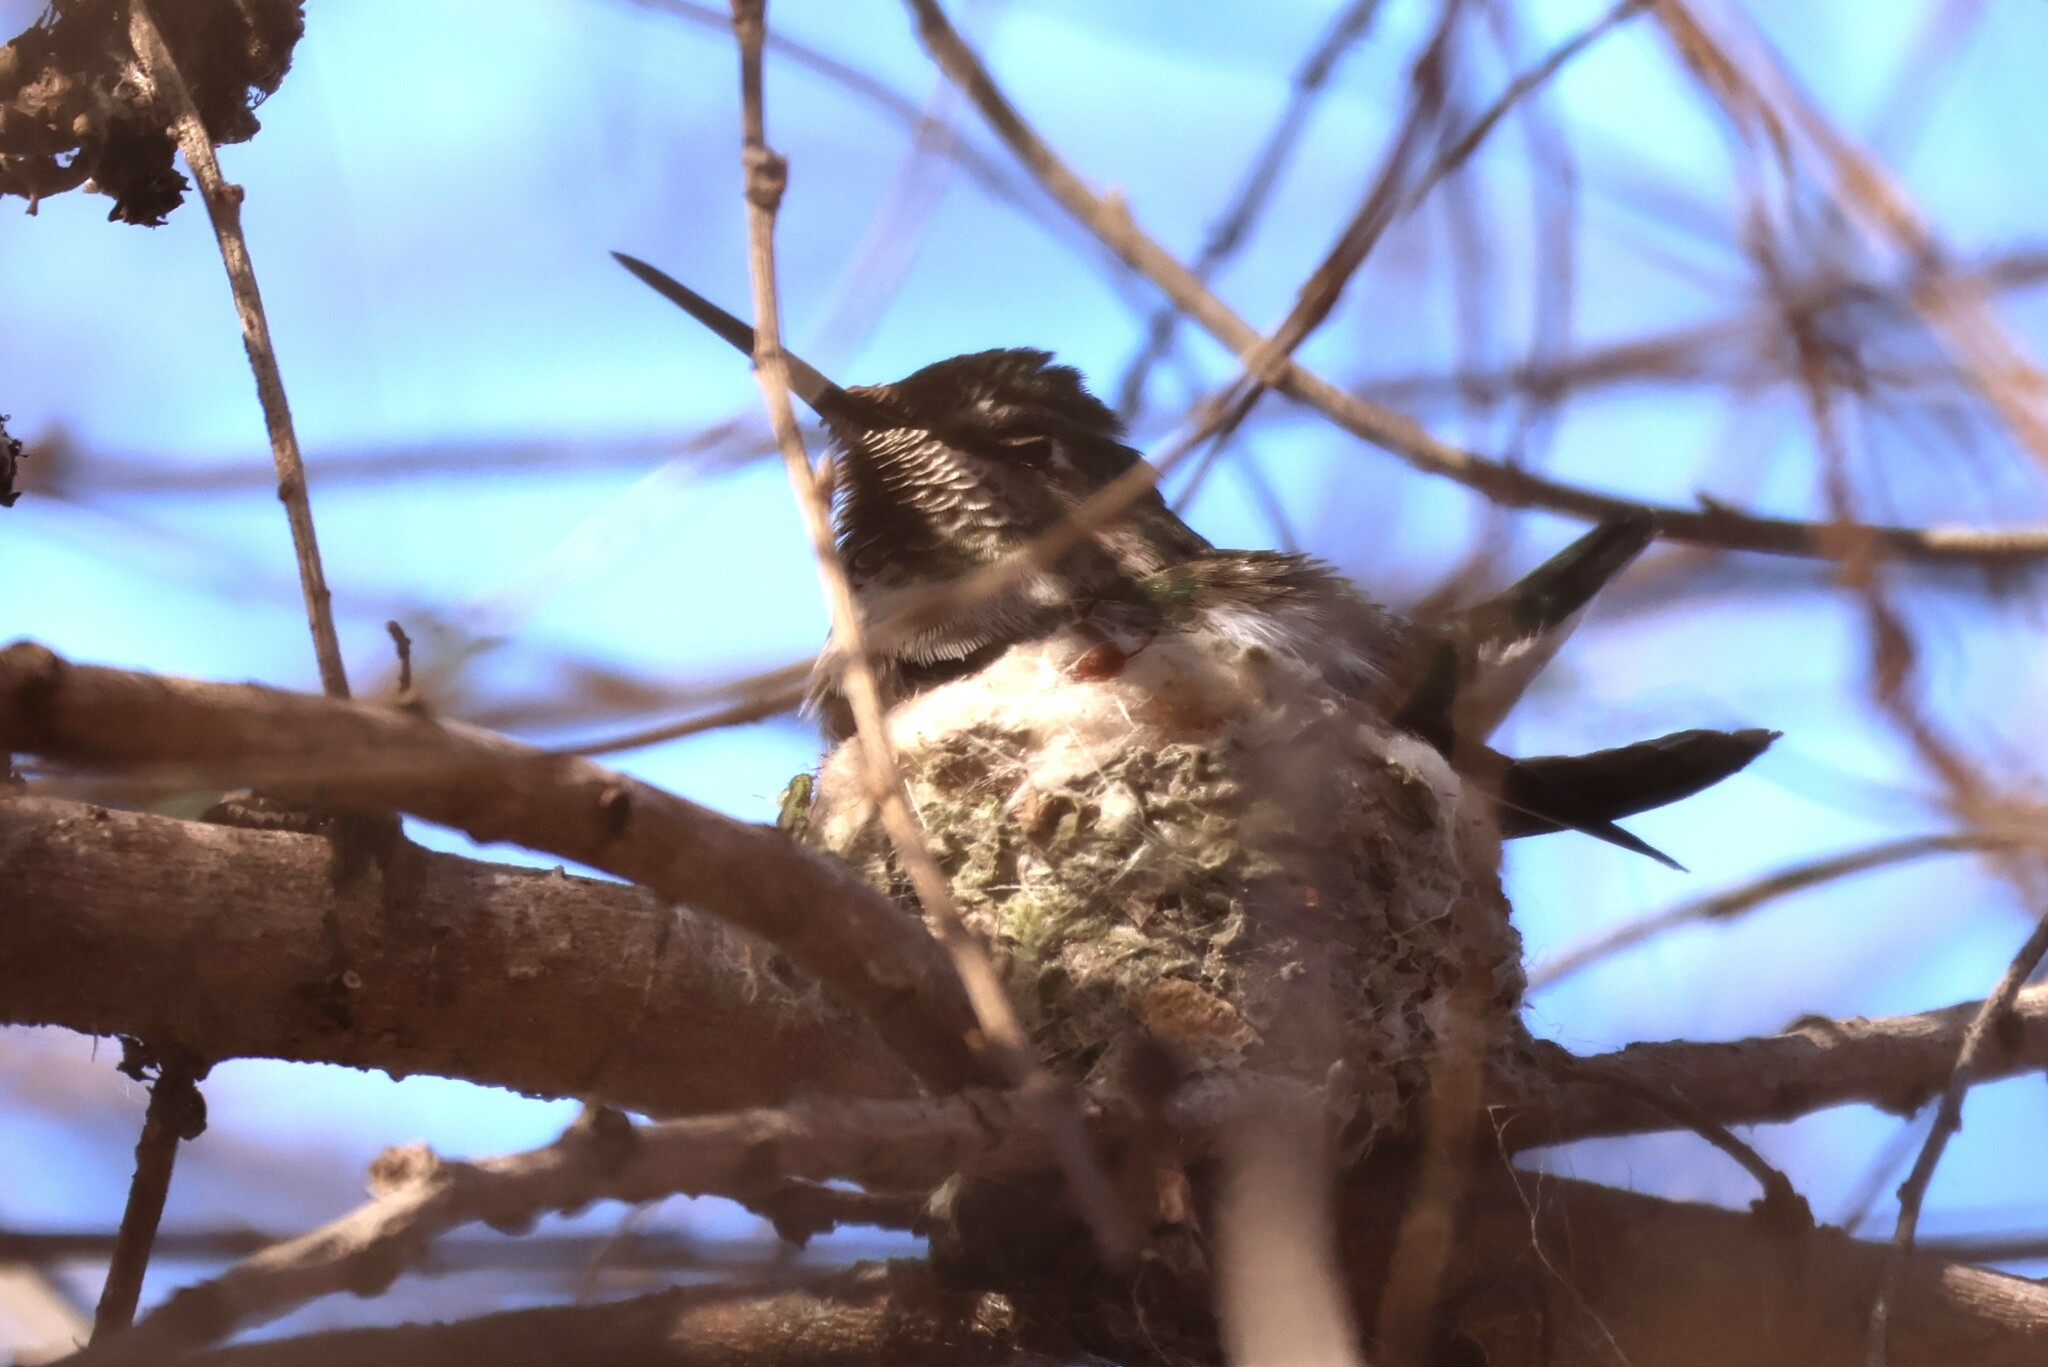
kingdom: Animalia
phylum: Chordata
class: Aves
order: Apodiformes
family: Trochilidae
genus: Calypte
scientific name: Calypte anna
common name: Anna's hummingbird
